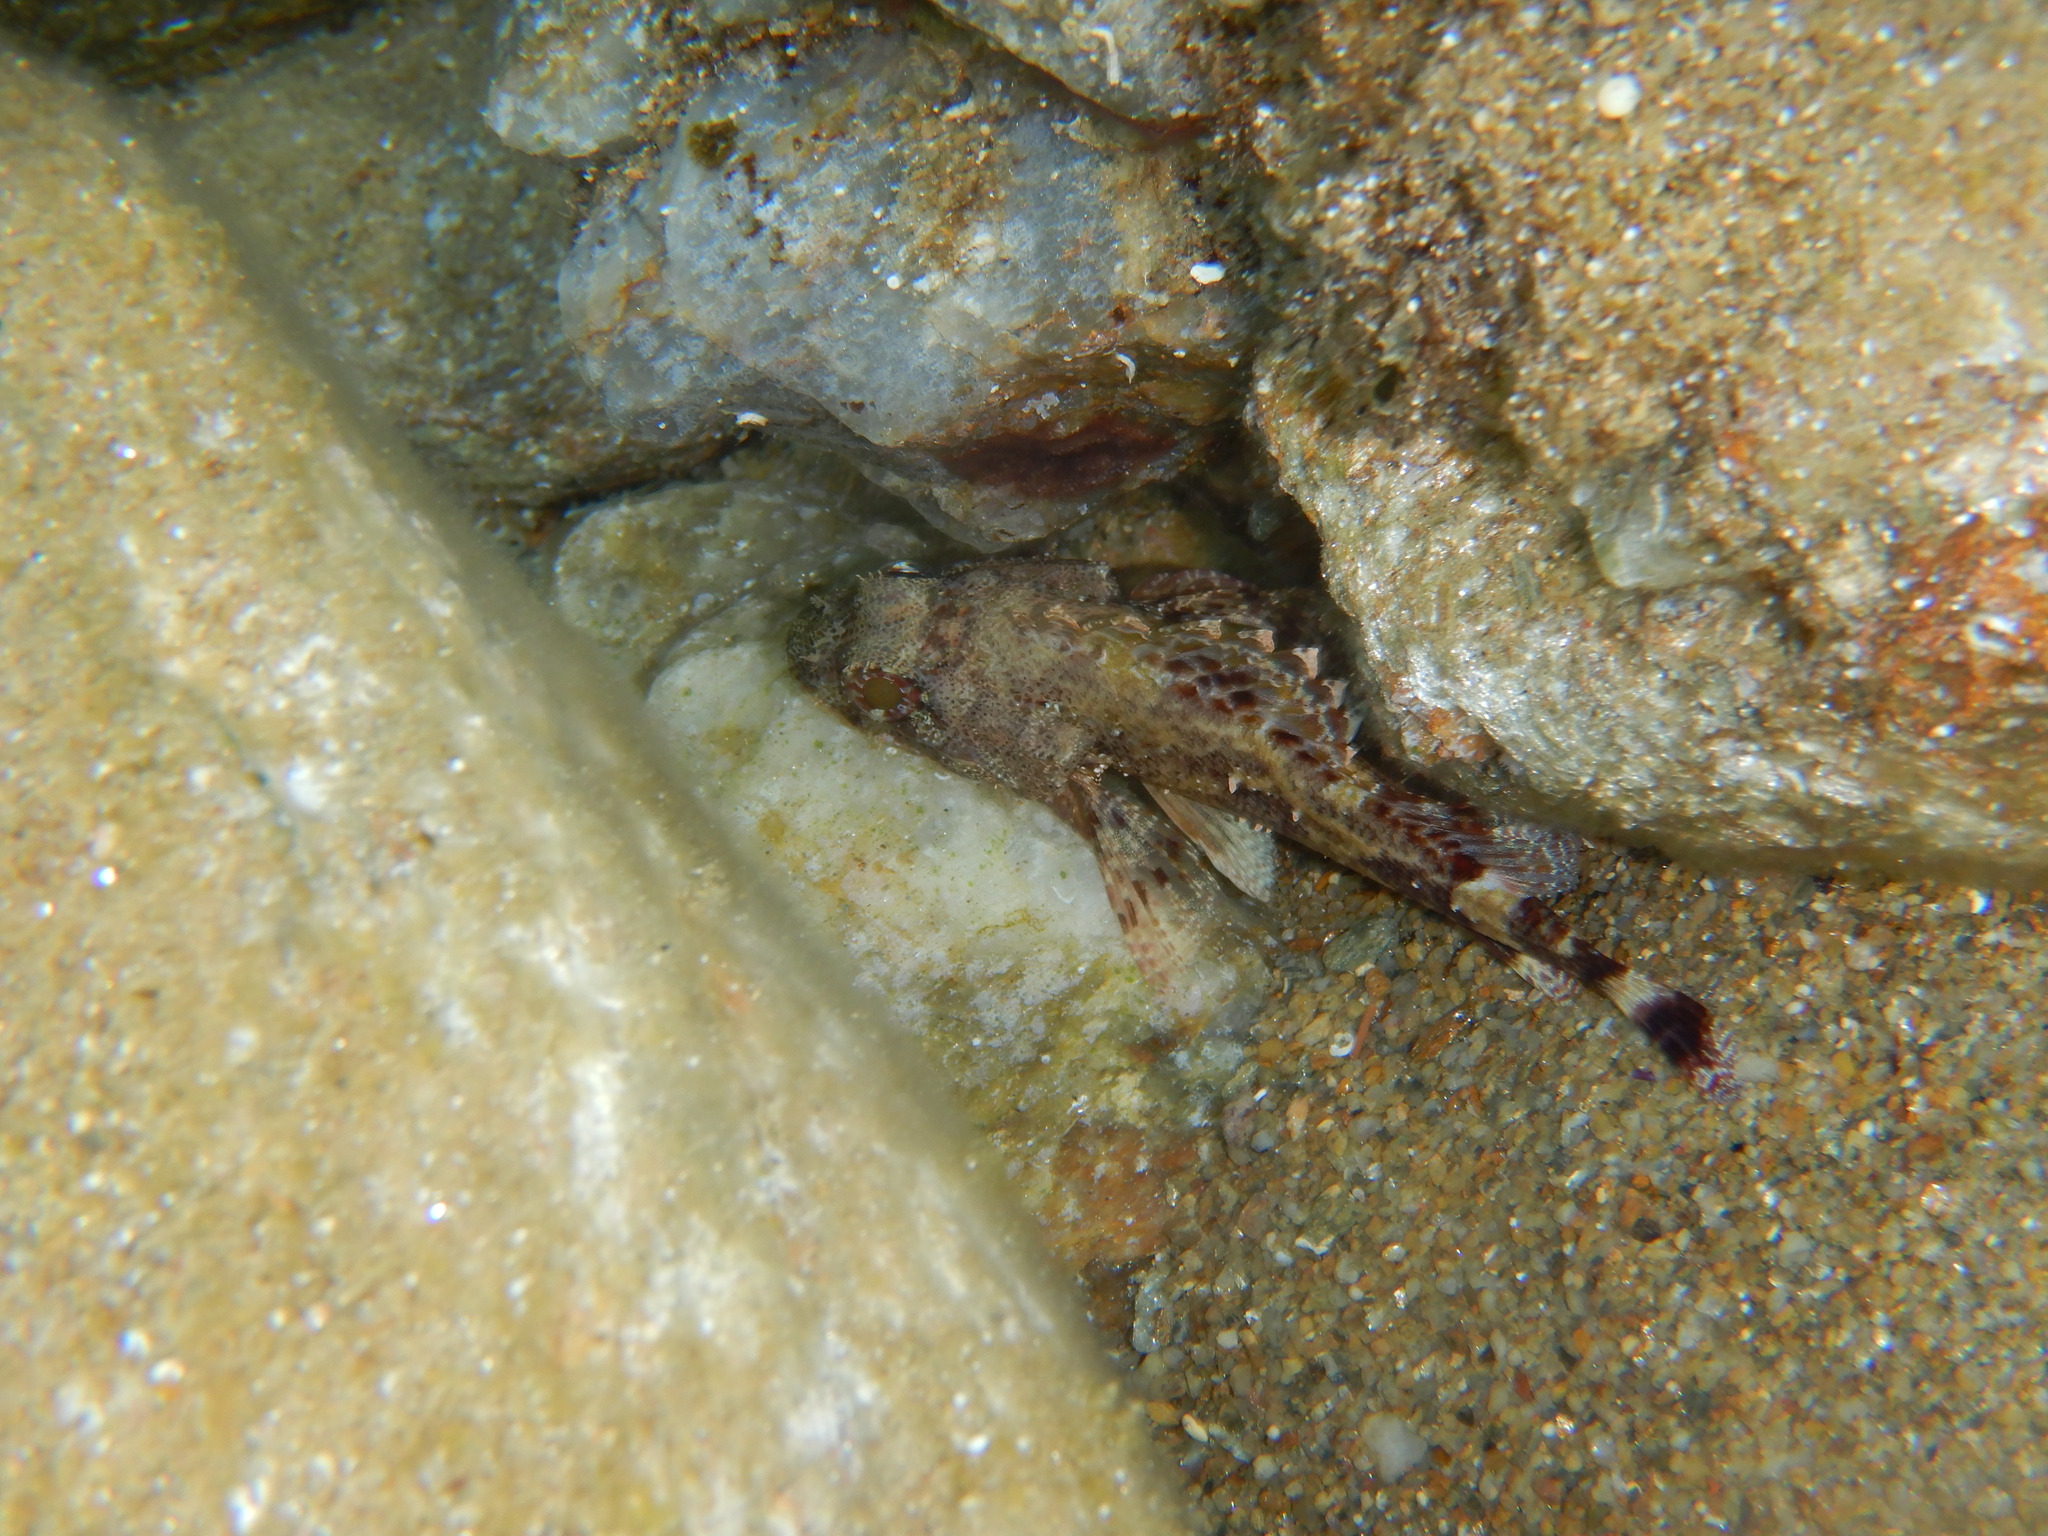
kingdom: Animalia
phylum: Chordata
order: Scorpaeniformes
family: Scorpaenidae
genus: Scorpaena
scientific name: Scorpaena maderensis
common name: Madeira rockfish
